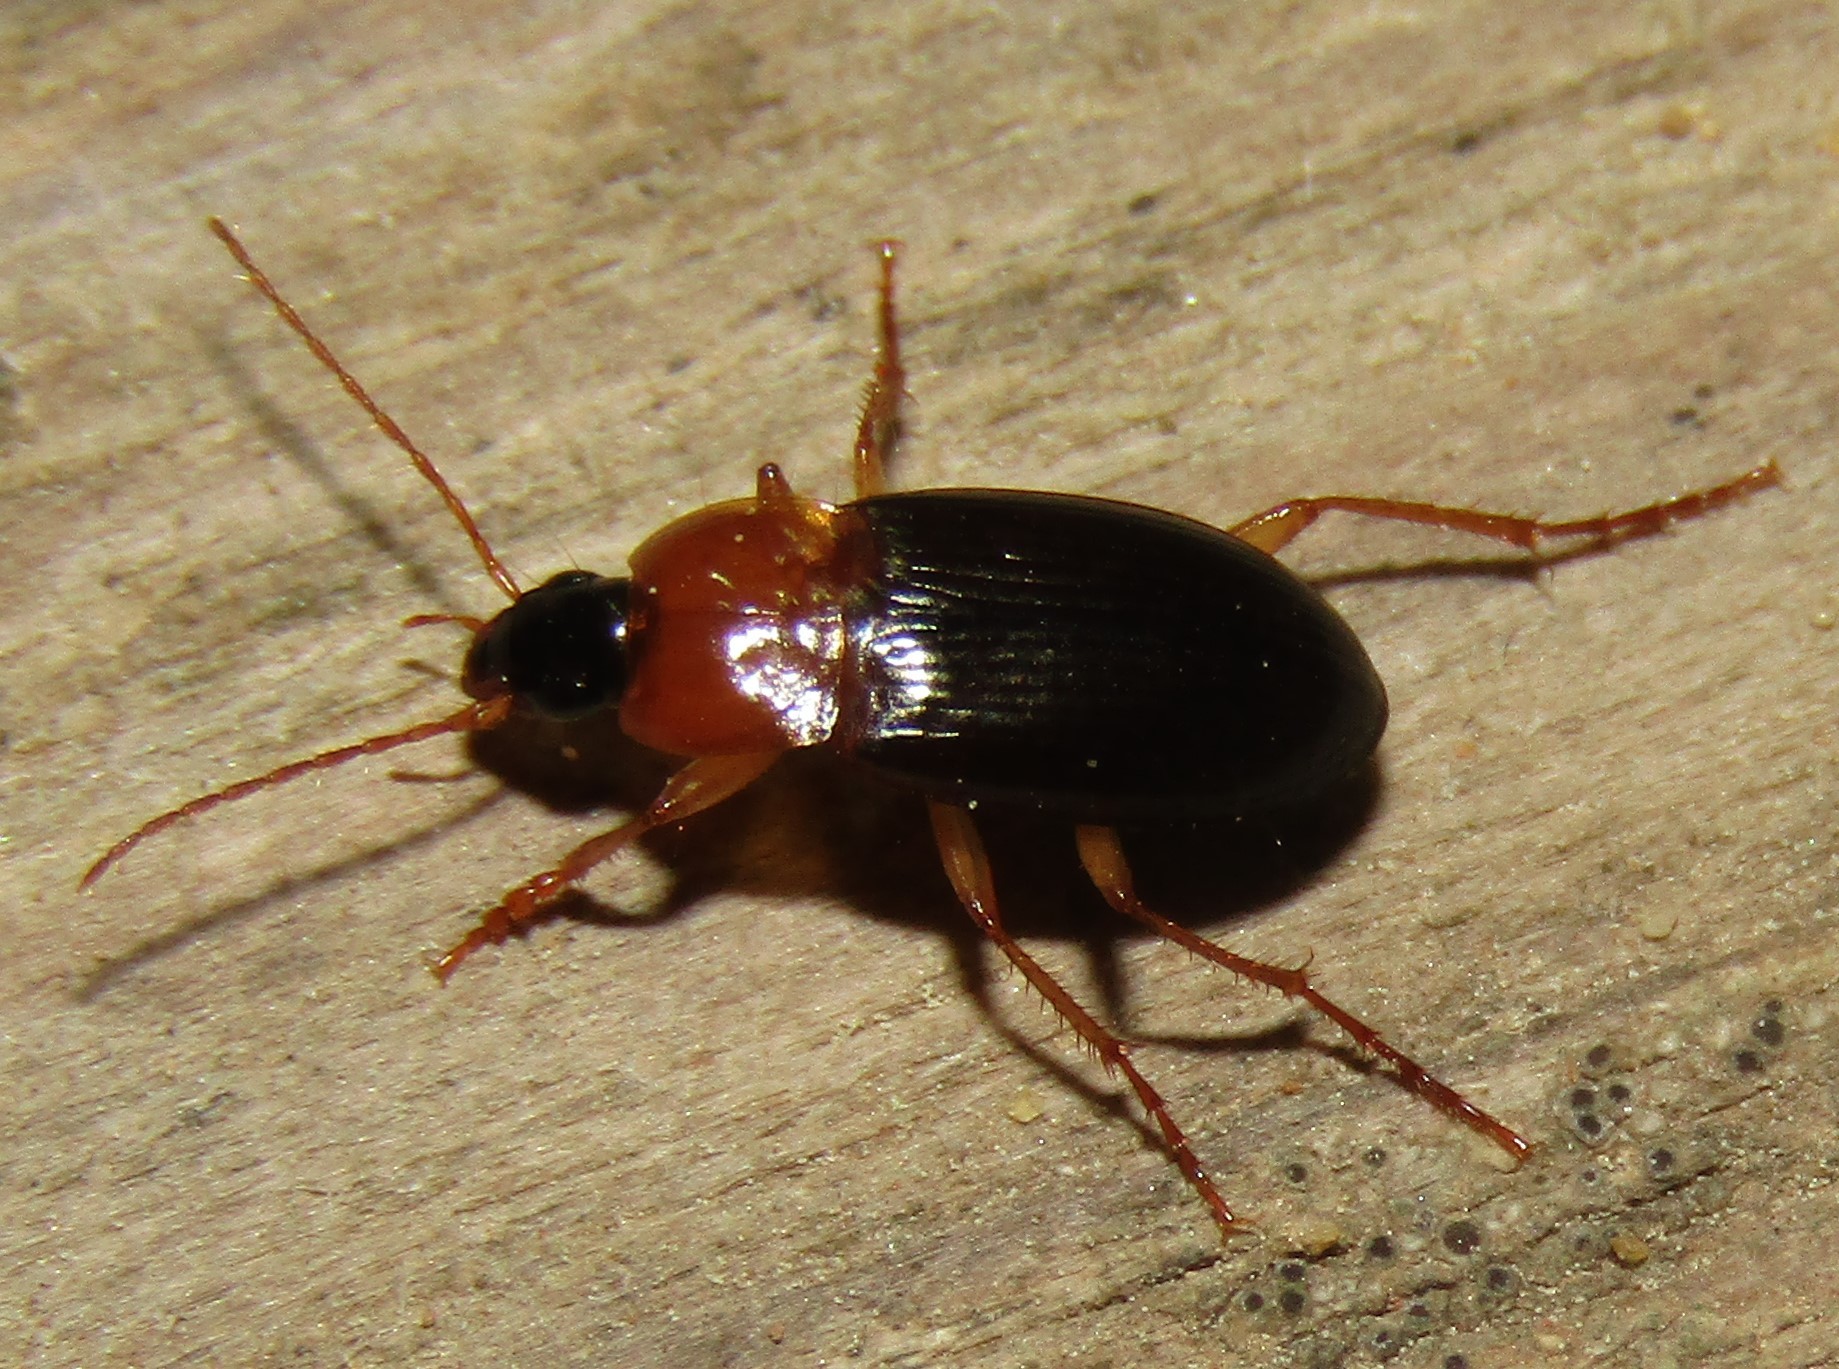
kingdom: Animalia
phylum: Arthropoda
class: Insecta
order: Coleoptera
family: Carabidae
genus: Calathus
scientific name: Calathus melanocephalus
